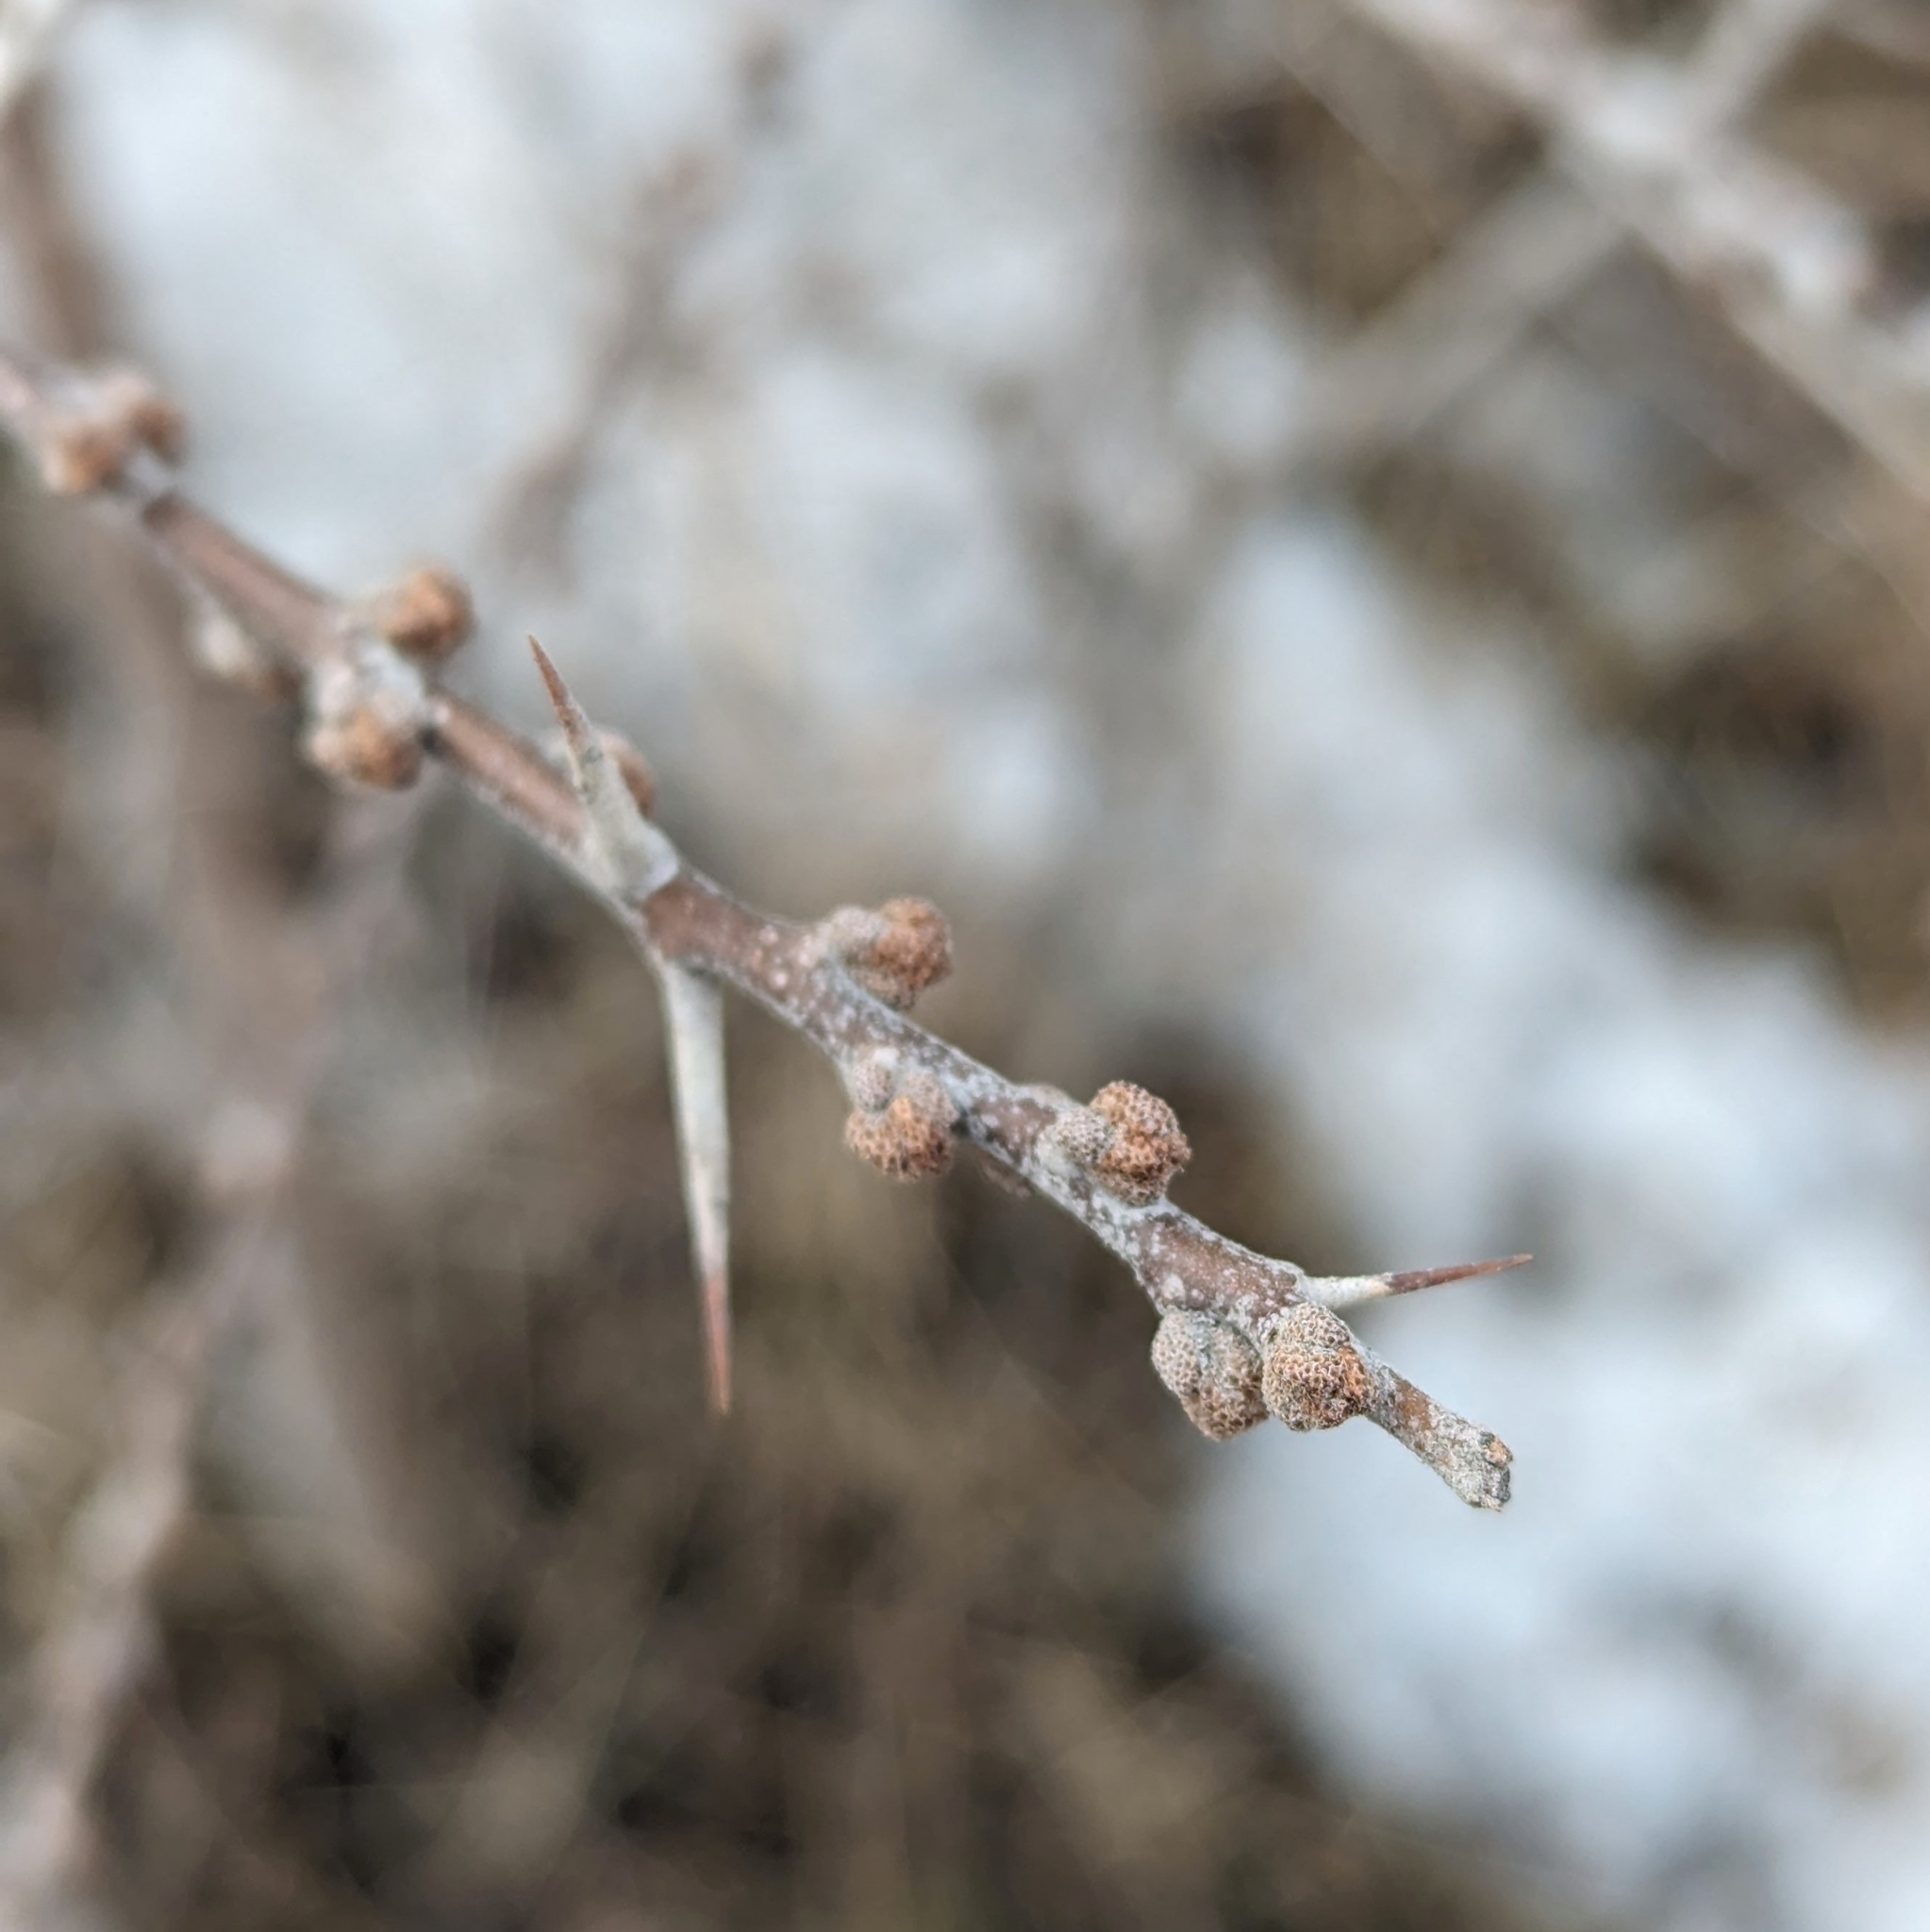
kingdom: Plantae
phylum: Tracheophyta
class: Magnoliopsida
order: Rosales
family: Elaeagnaceae
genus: Hippophae
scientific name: Hippophae rhamnoides
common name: Sea-buckthorn
